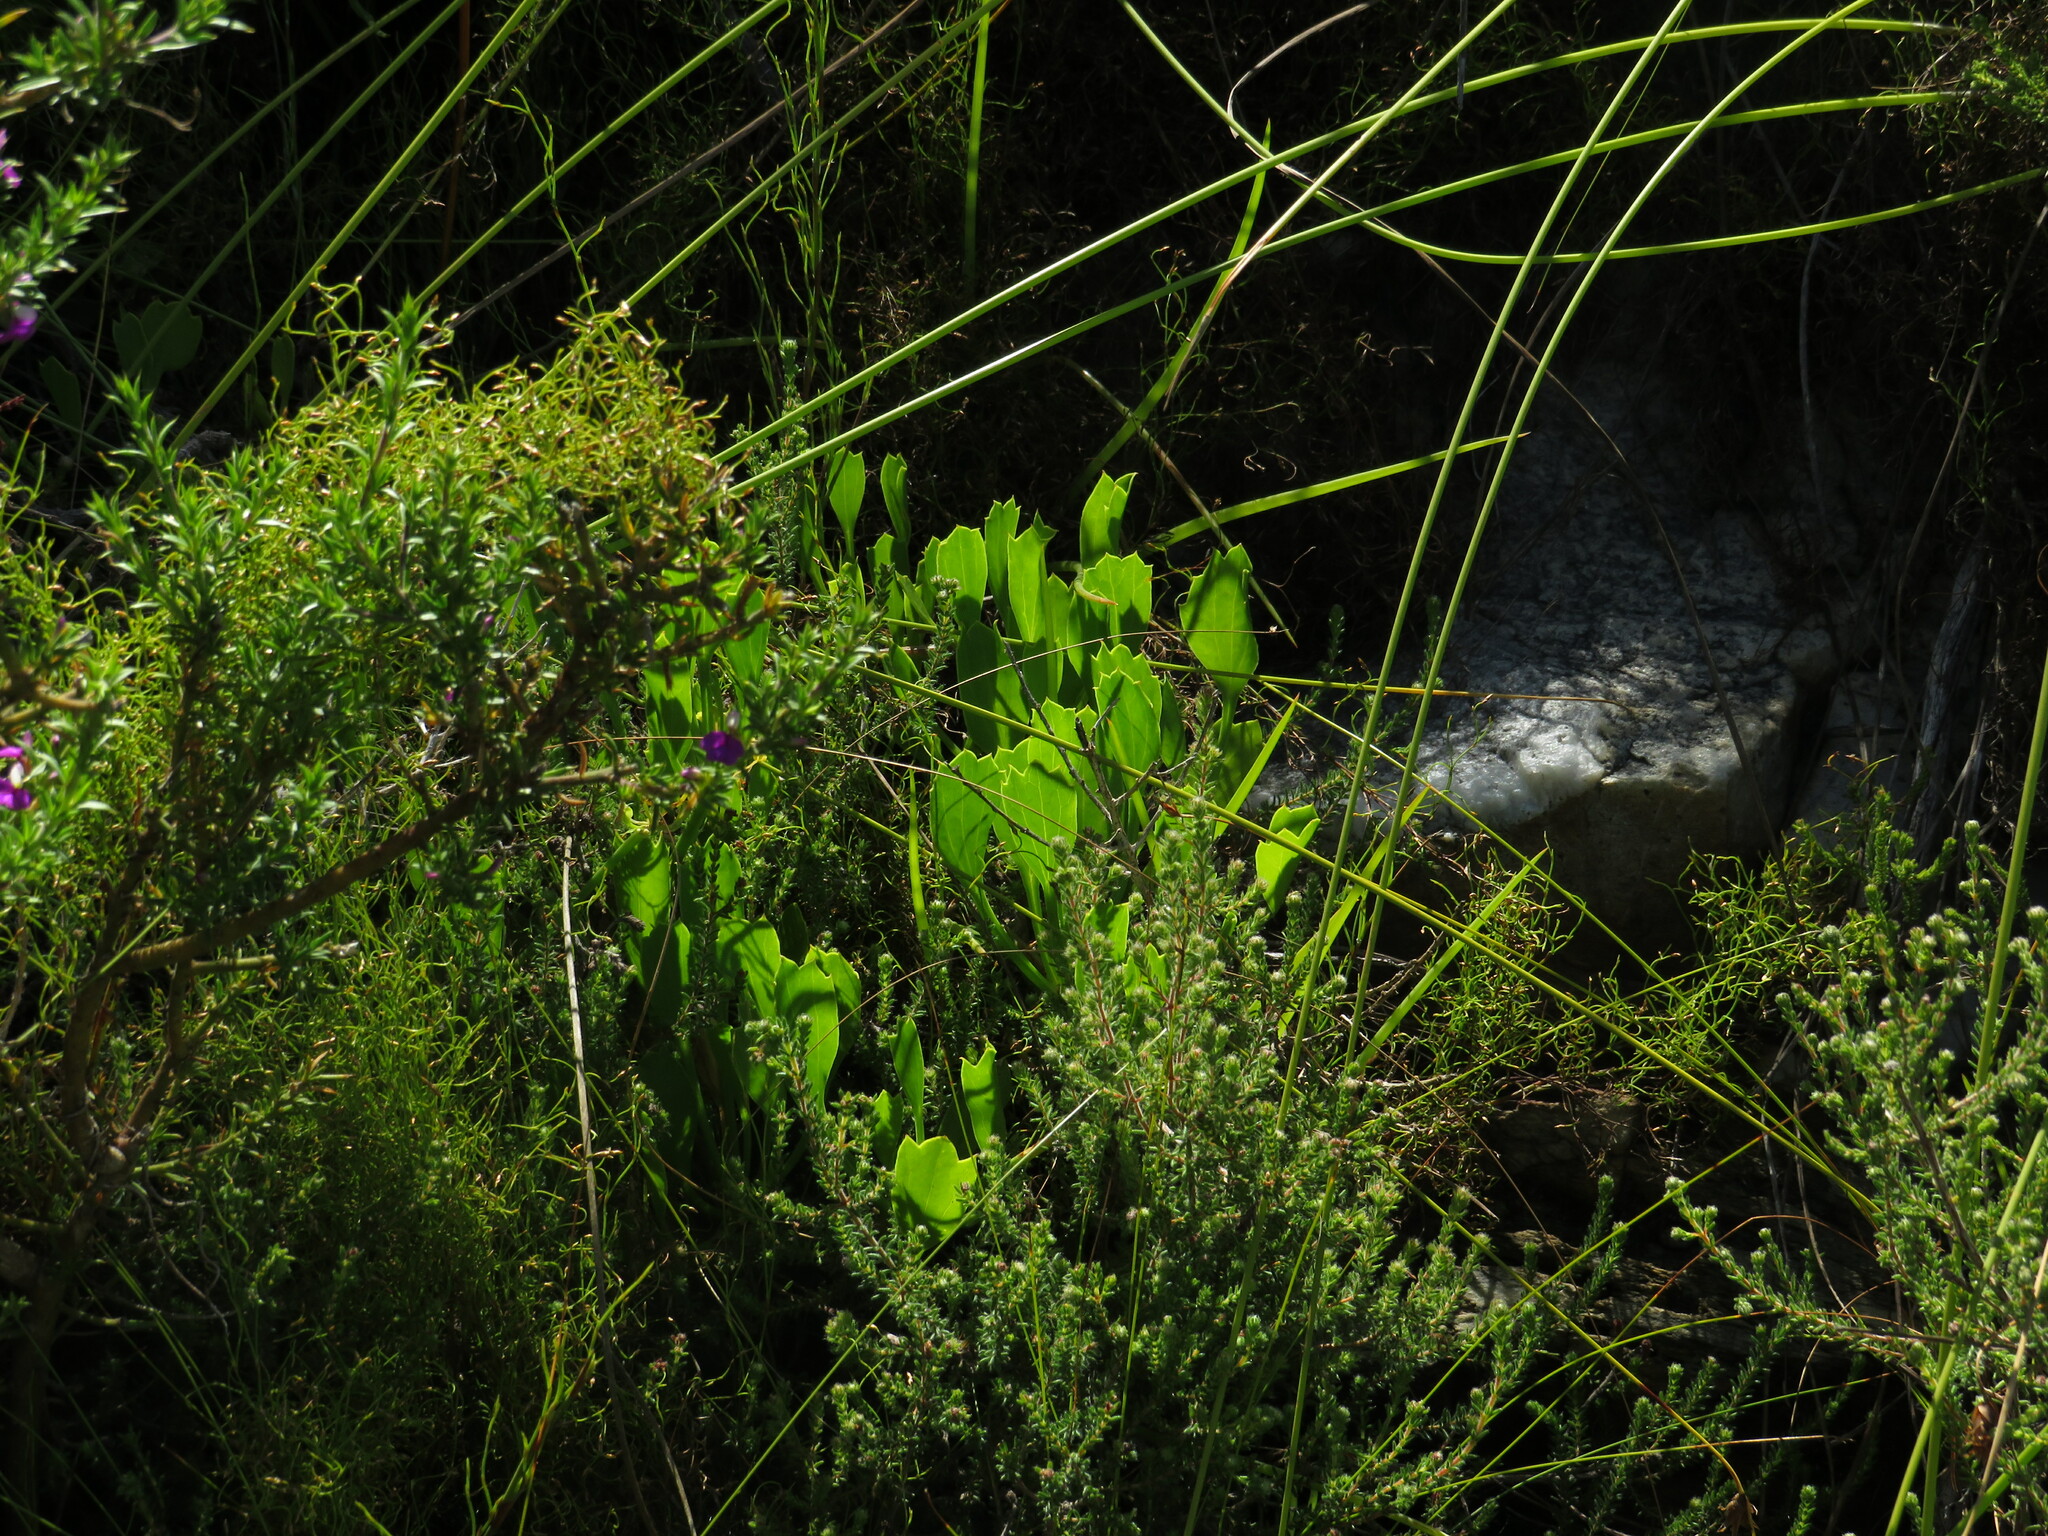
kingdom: Plantae
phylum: Tracheophyta
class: Magnoliopsida
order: Apiales
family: Apiaceae
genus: Centella
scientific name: Centella triloba
